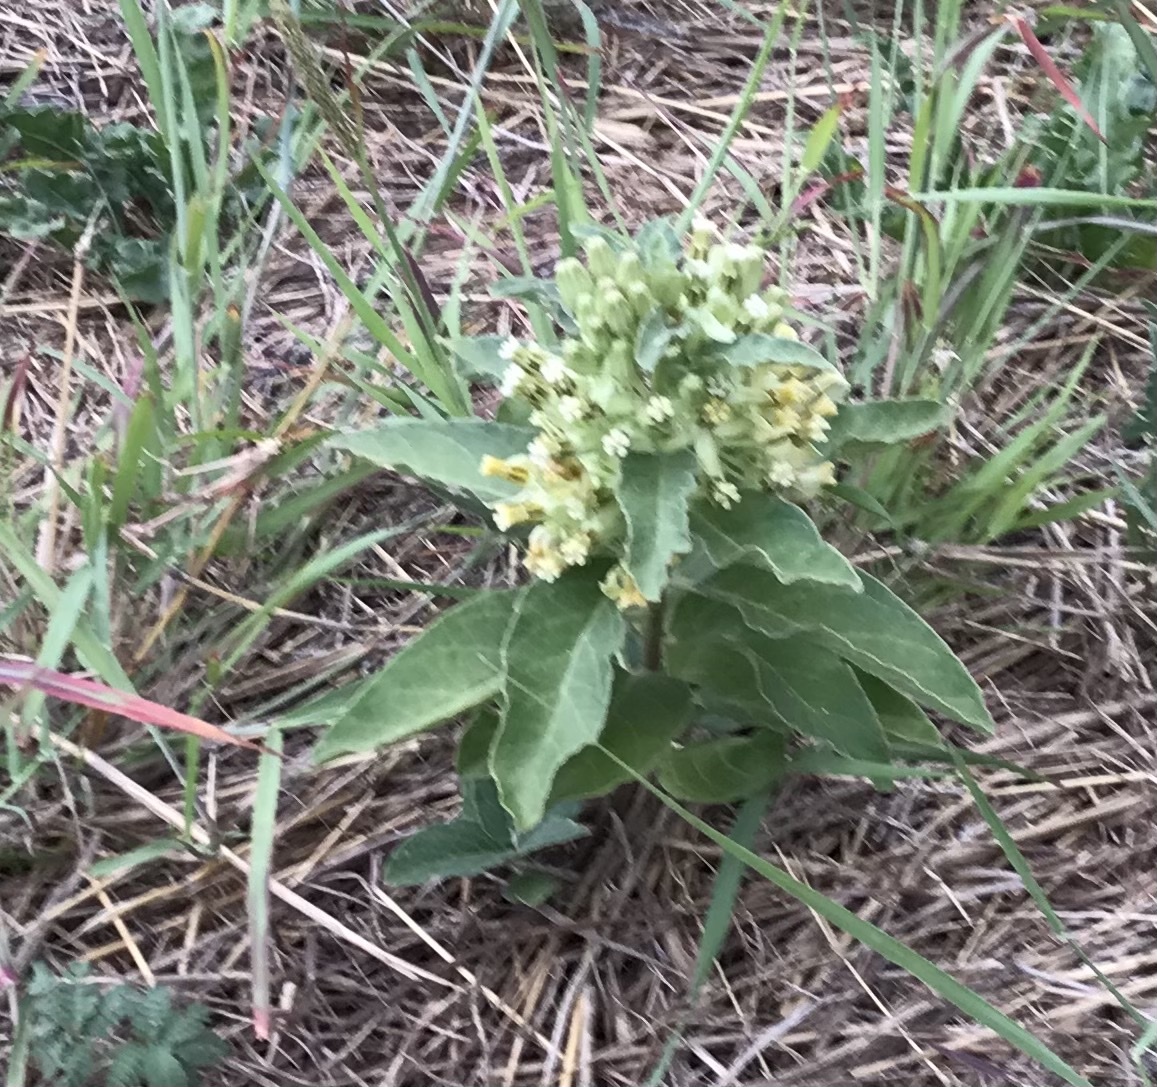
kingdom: Plantae
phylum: Tracheophyta
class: Magnoliopsida
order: Gentianales
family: Apocynaceae
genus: Asclepias
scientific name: Asclepias oenotheroides
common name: Zizotes milkweed
